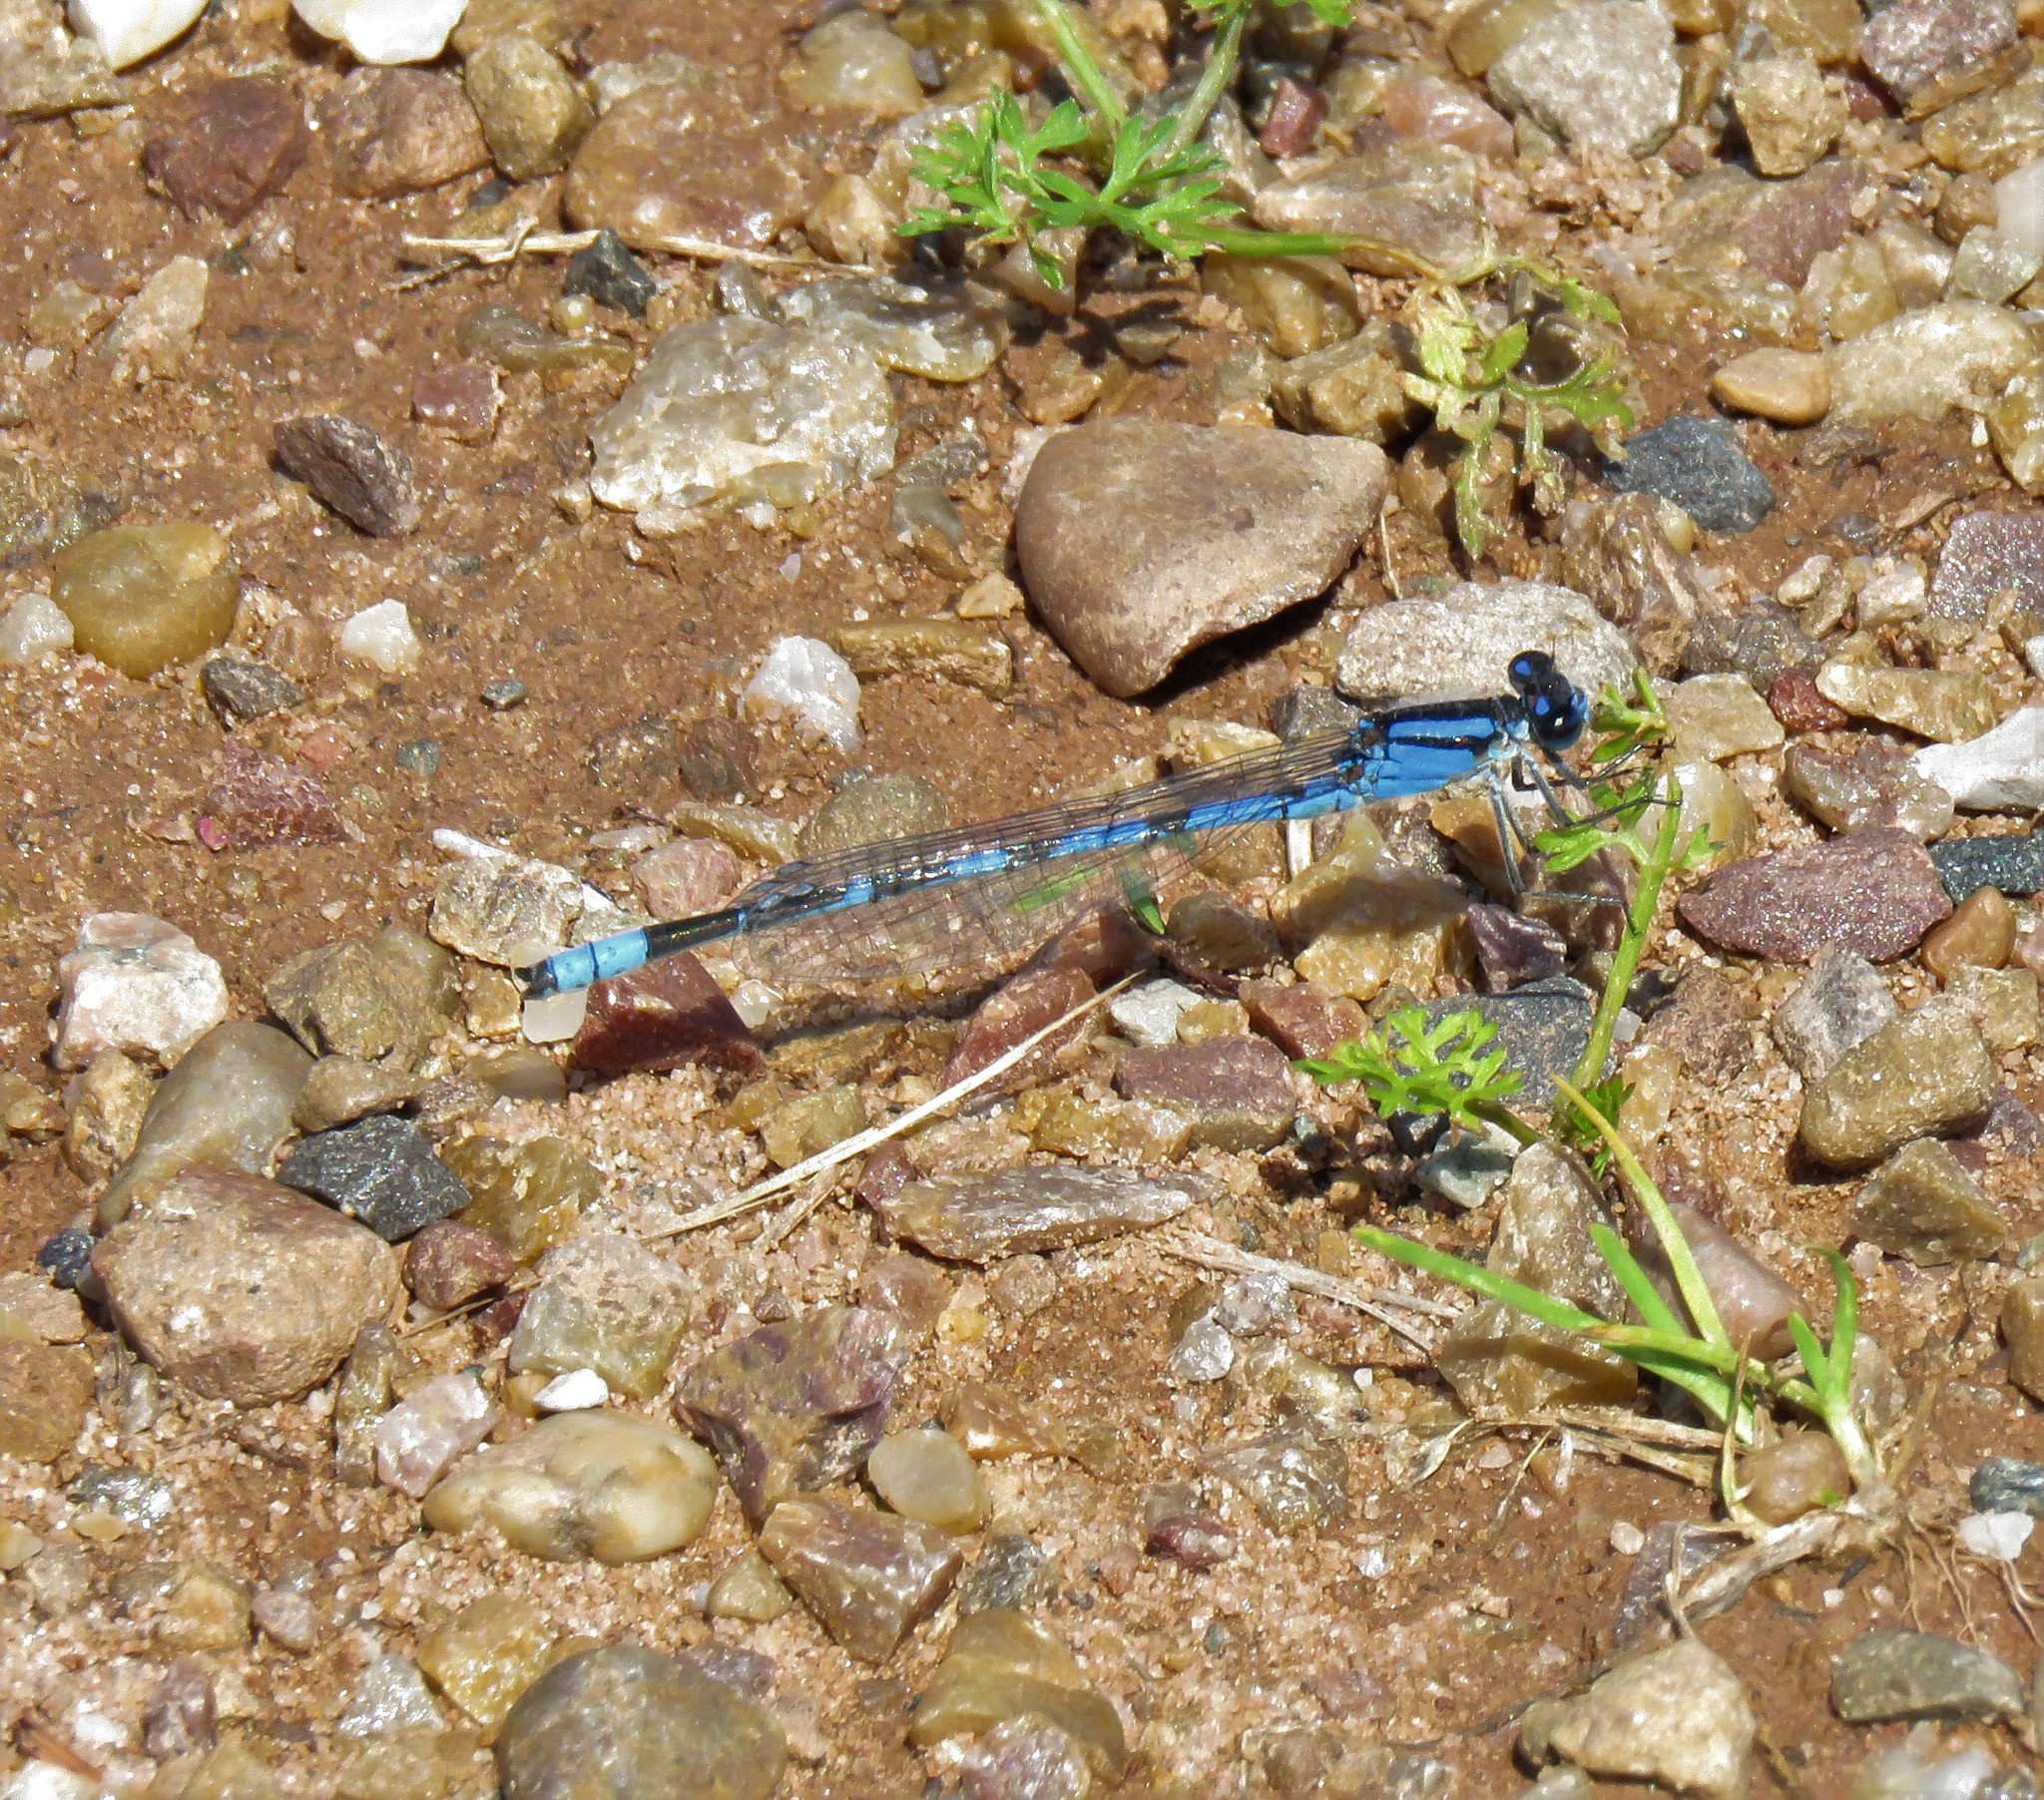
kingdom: Animalia
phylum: Arthropoda
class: Insecta
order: Odonata
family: Coenagrionidae
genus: Enallagma
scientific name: Enallagma civile
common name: Damselfly
